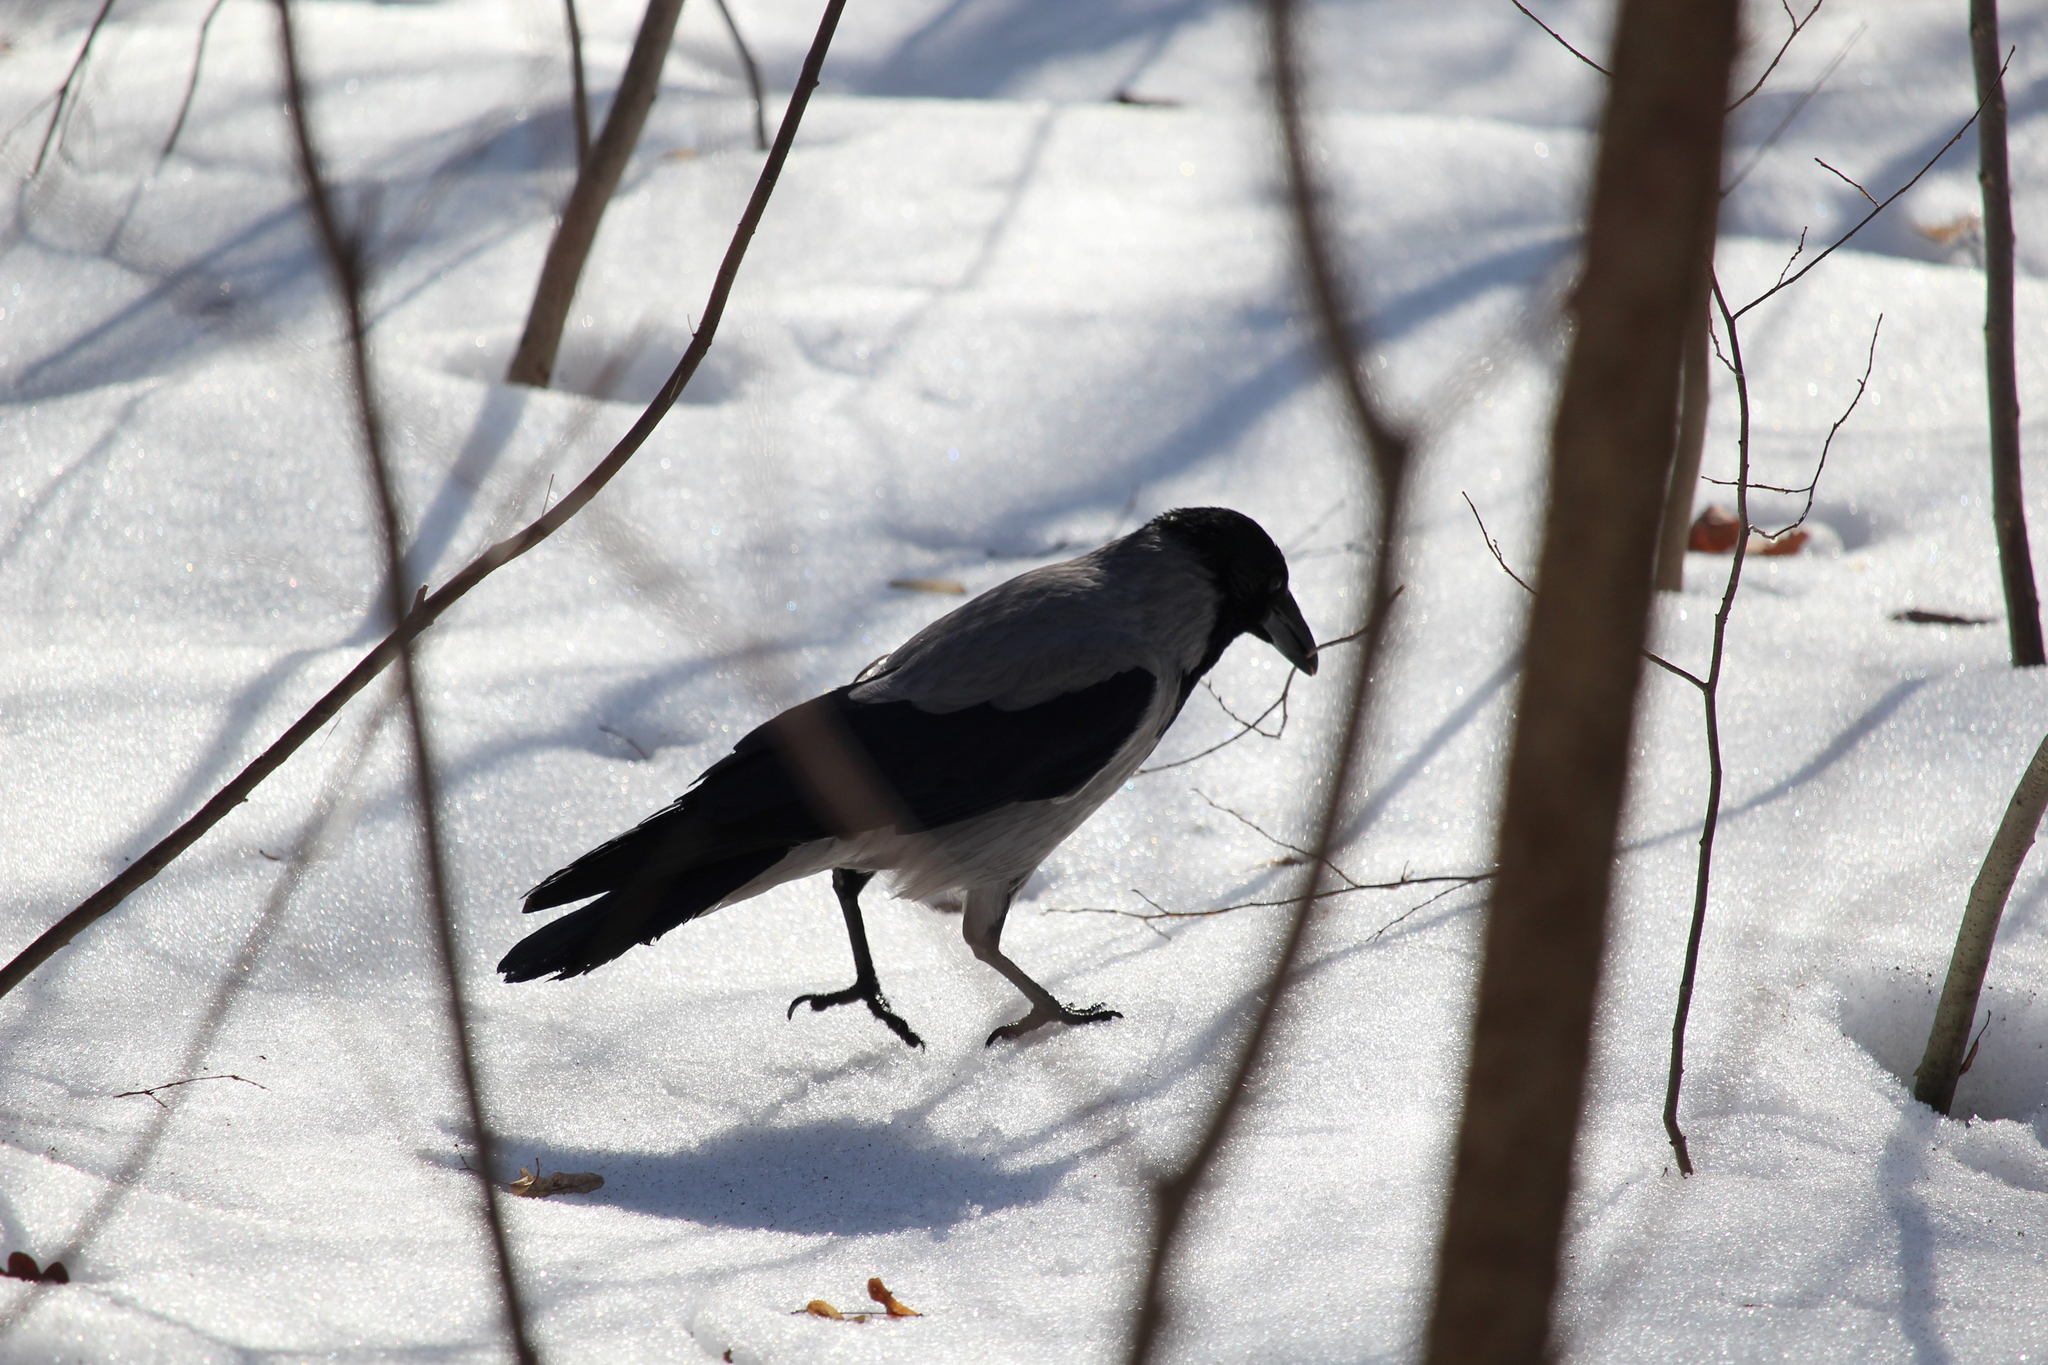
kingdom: Animalia
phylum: Chordata
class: Aves
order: Passeriformes
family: Corvidae
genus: Corvus
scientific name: Corvus cornix
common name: Hooded crow
